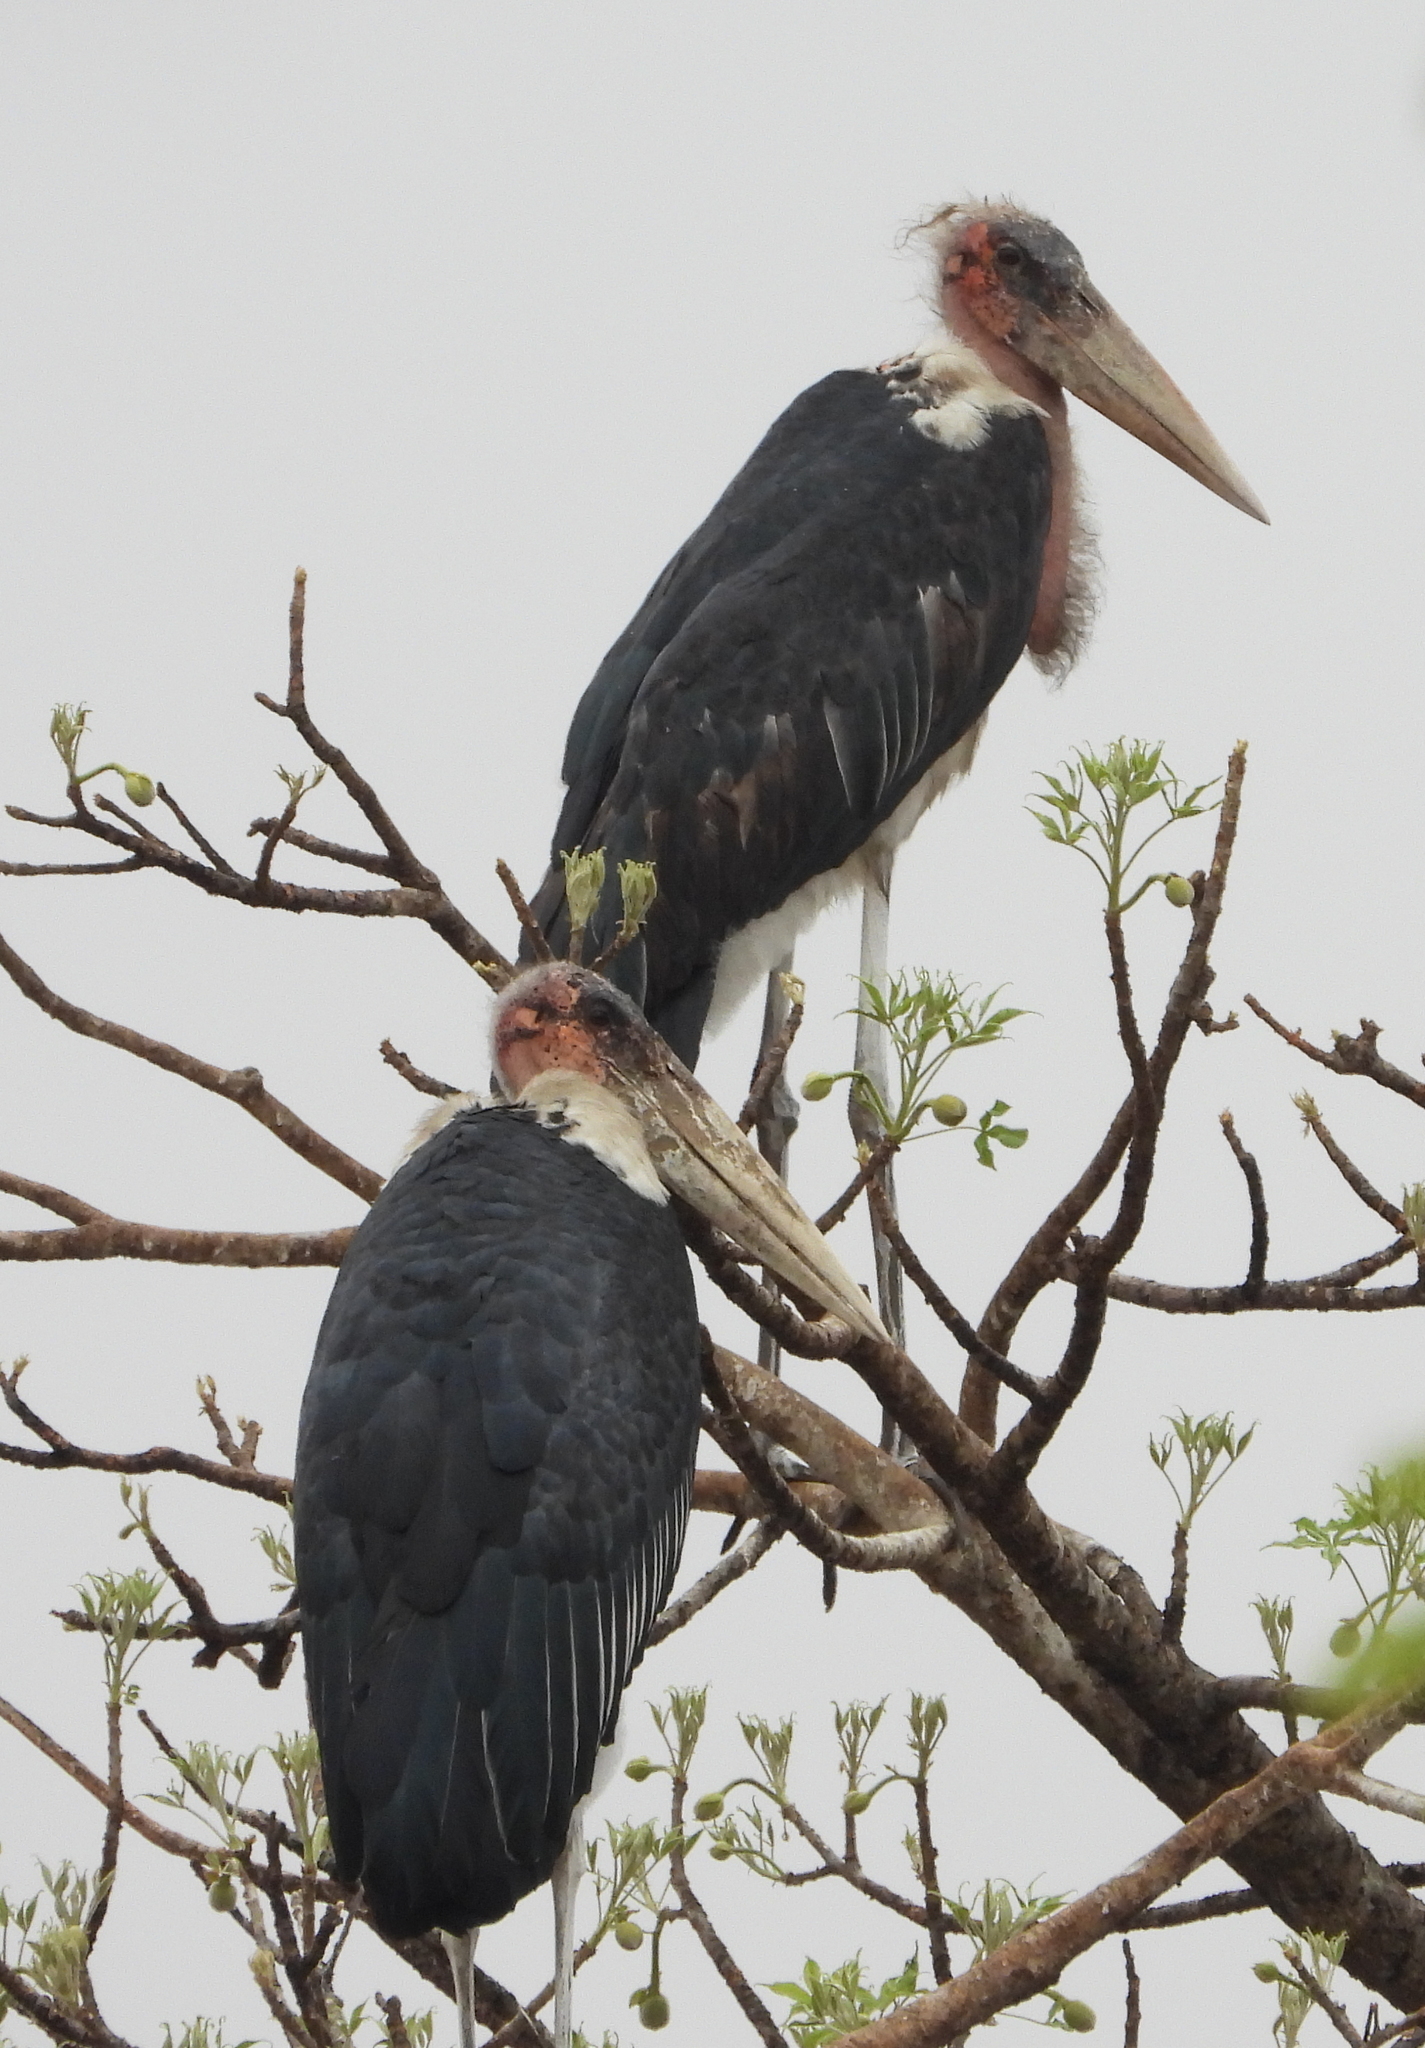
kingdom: Animalia
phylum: Chordata
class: Aves
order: Ciconiiformes
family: Ciconiidae
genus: Leptoptilos
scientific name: Leptoptilos crumenifer
